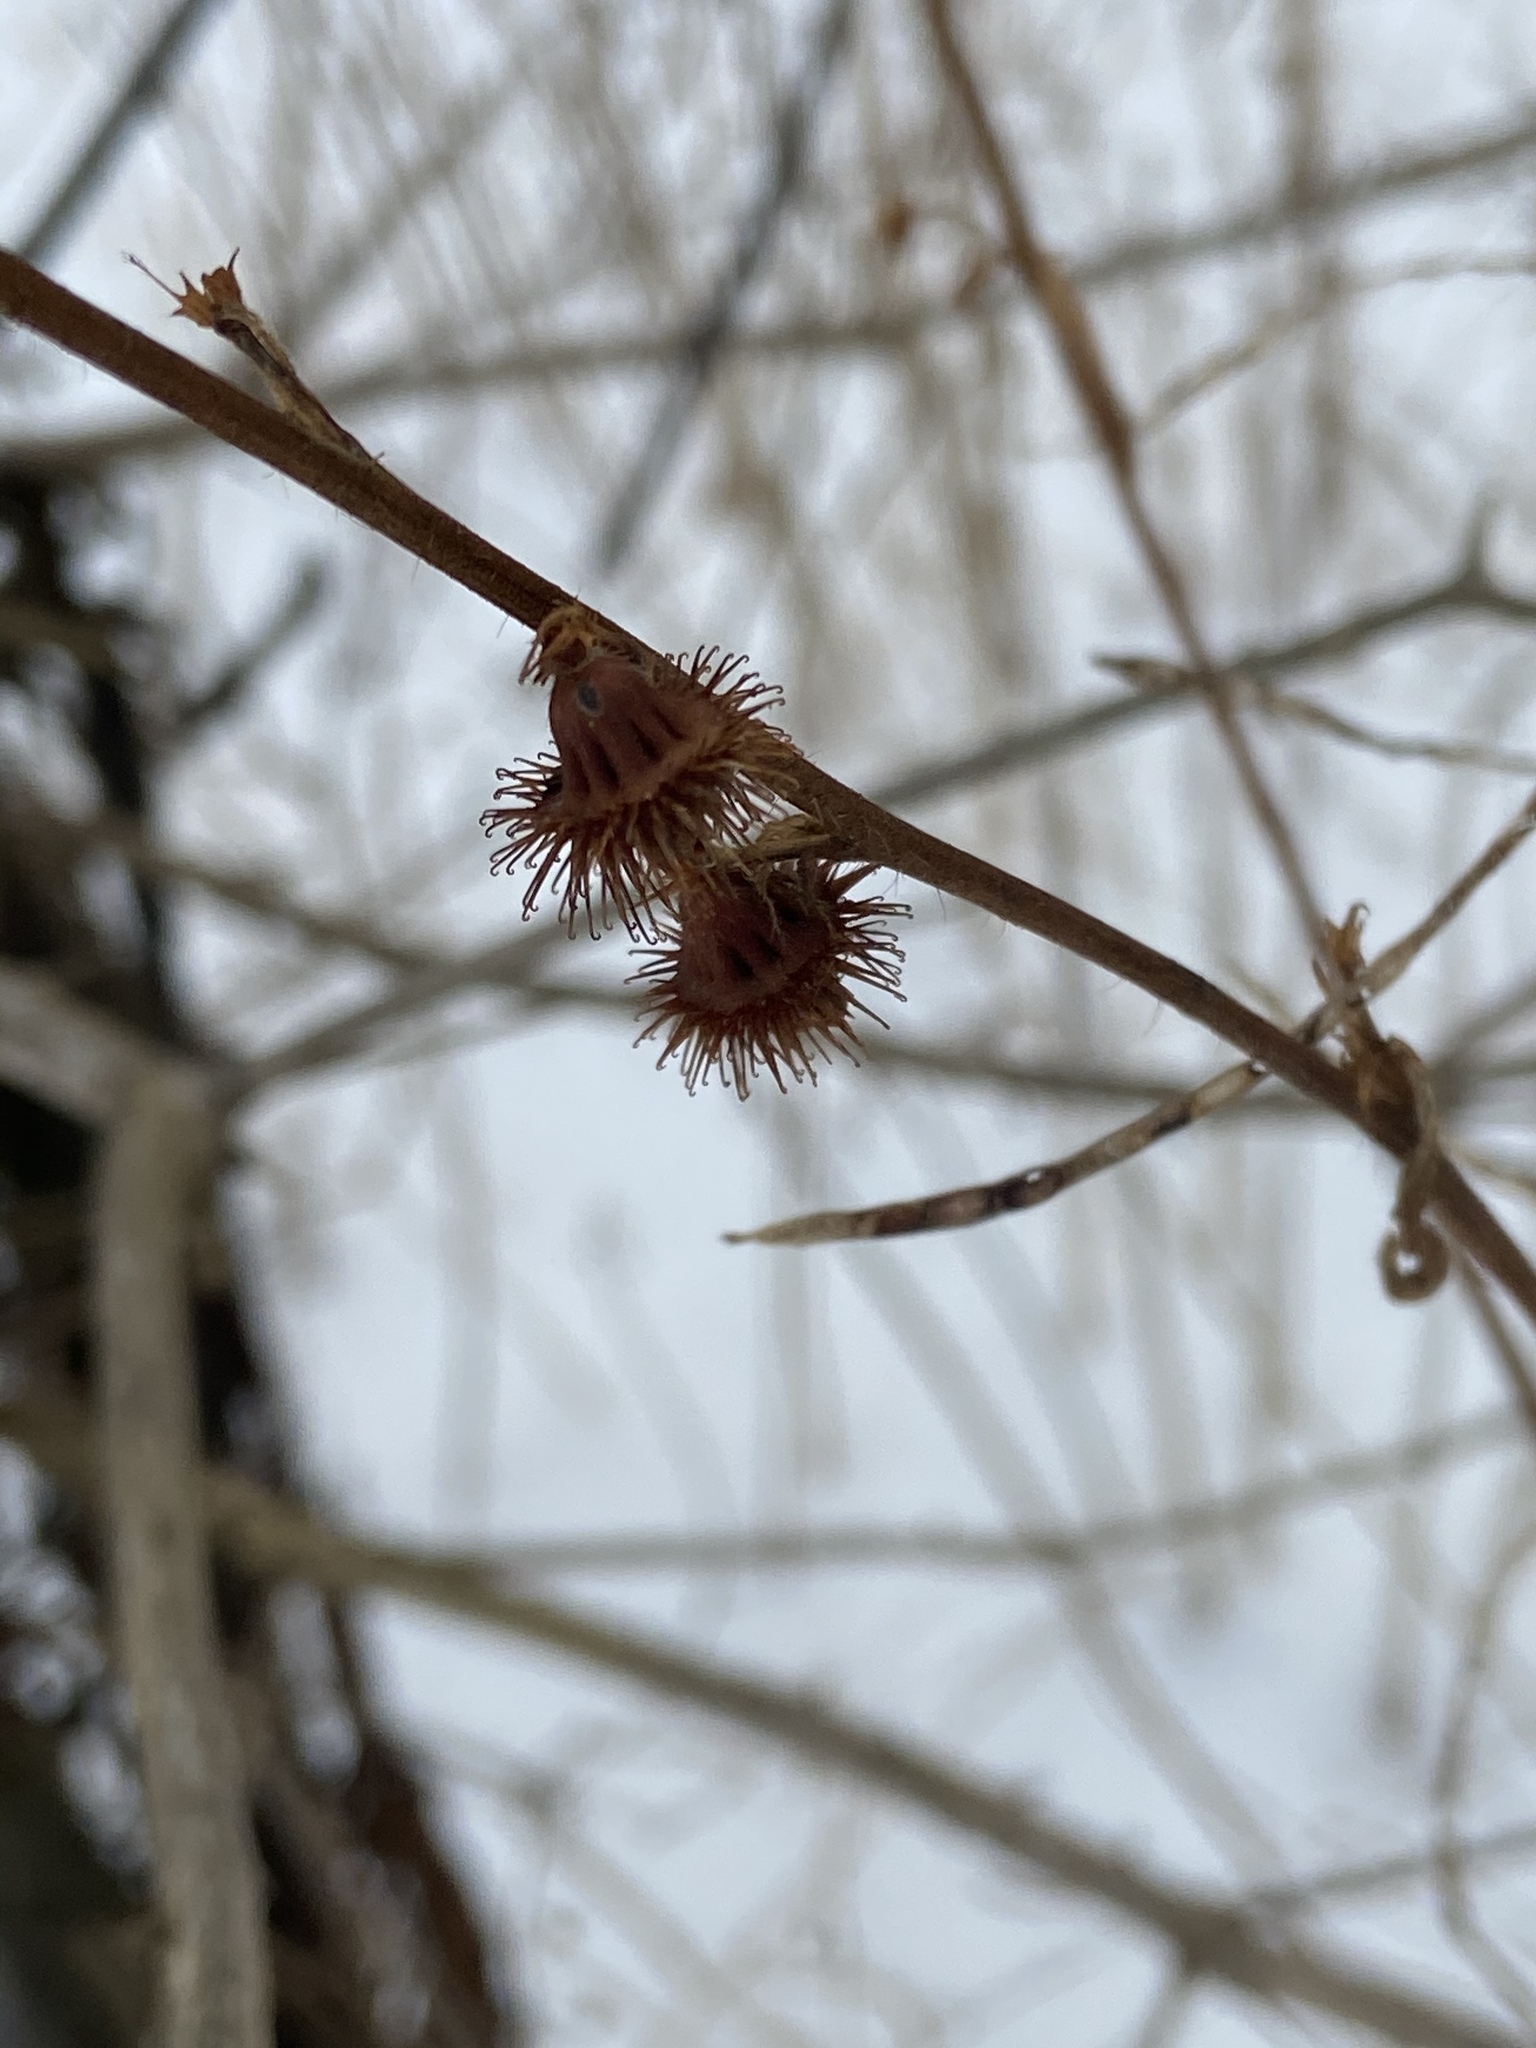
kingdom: Plantae
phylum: Tracheophyta
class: Magnoliopsida
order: Rosales
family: Rosaceae
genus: Agrimonia
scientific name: Agrimonia gryposepala
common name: Common agrimony
